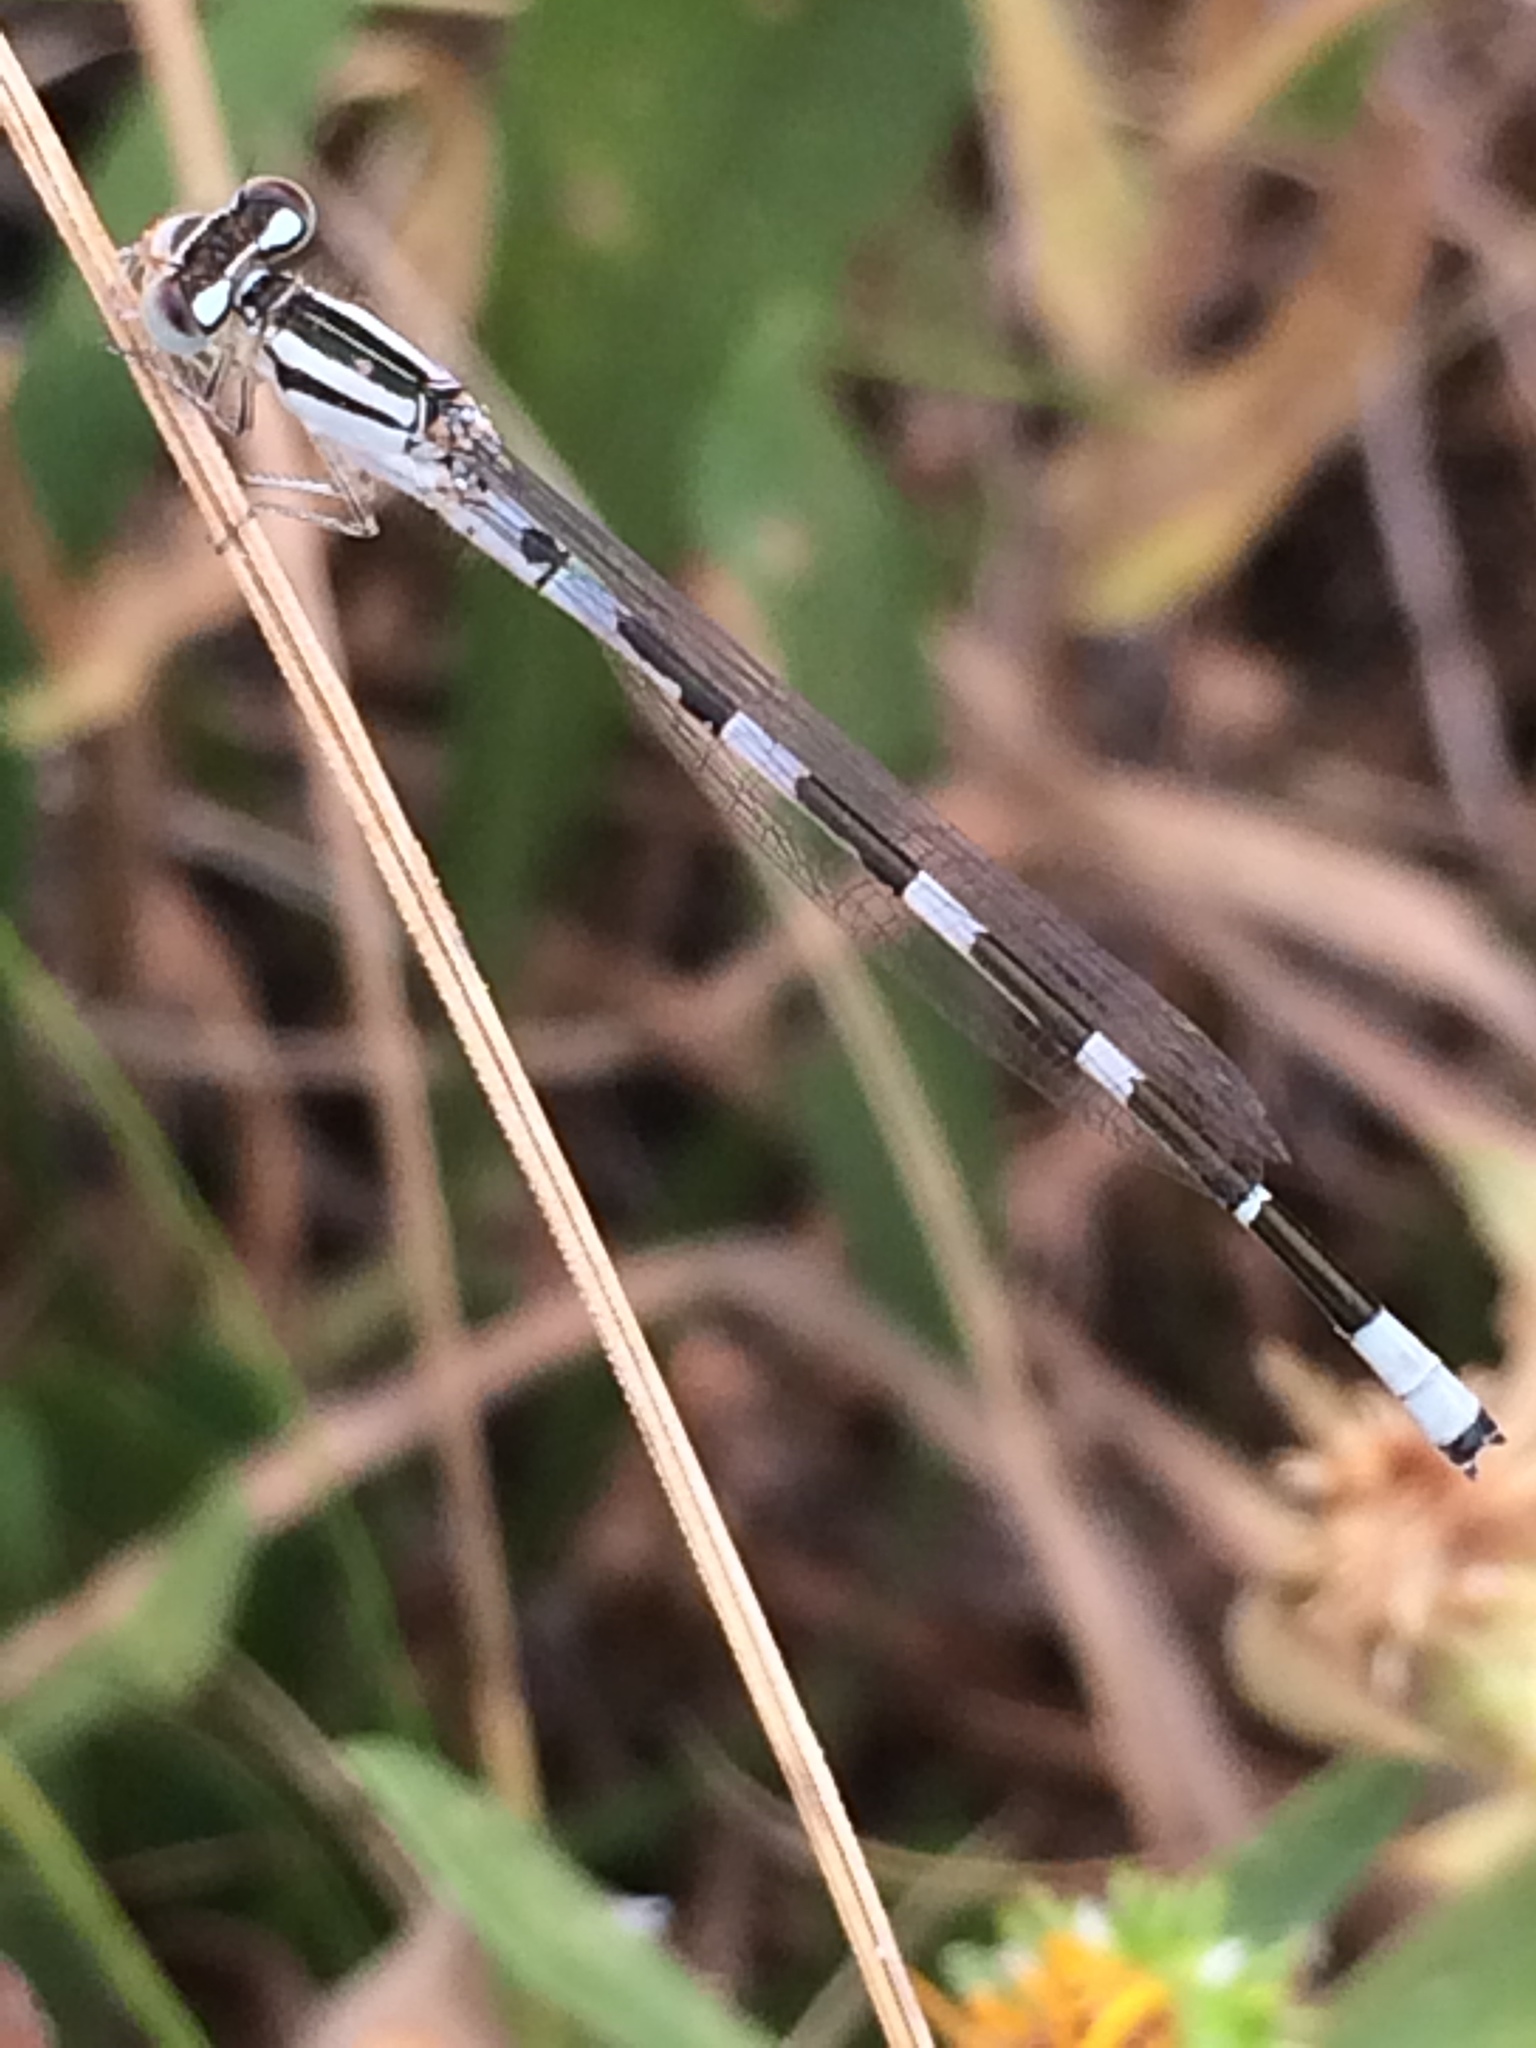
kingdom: Animalia
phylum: Arthropoda
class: Insecta
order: Odonata
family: Coenagrionidae
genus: Enallagma
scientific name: Enallagma carunculatum
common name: Tule bluet
